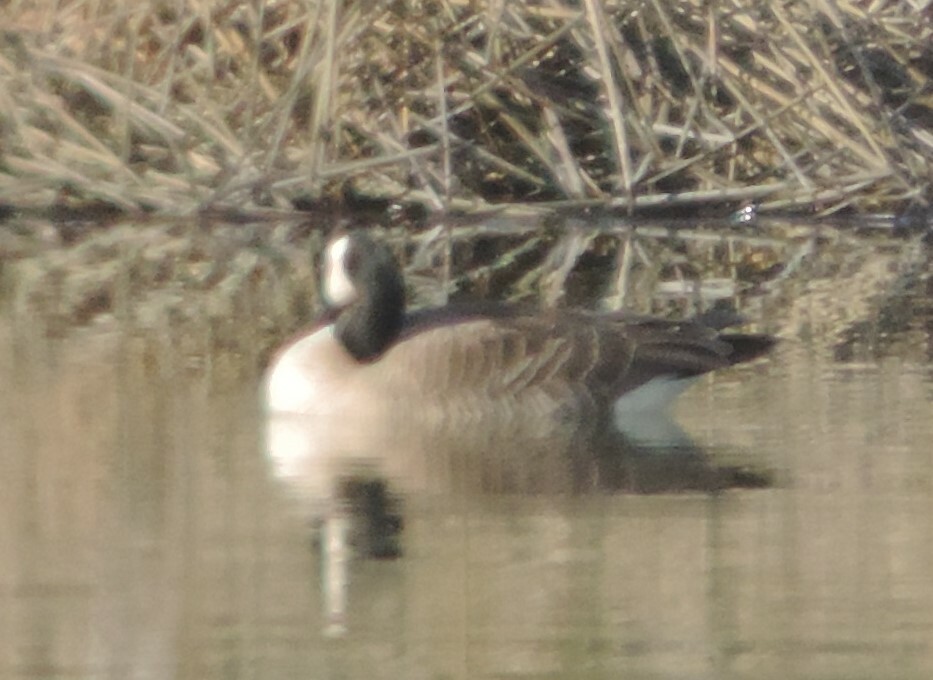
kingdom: Animalia
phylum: Chordata
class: Aves
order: Anseriformes
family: Anatidae
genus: Branta
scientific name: Branta canadensis
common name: Canada goose
